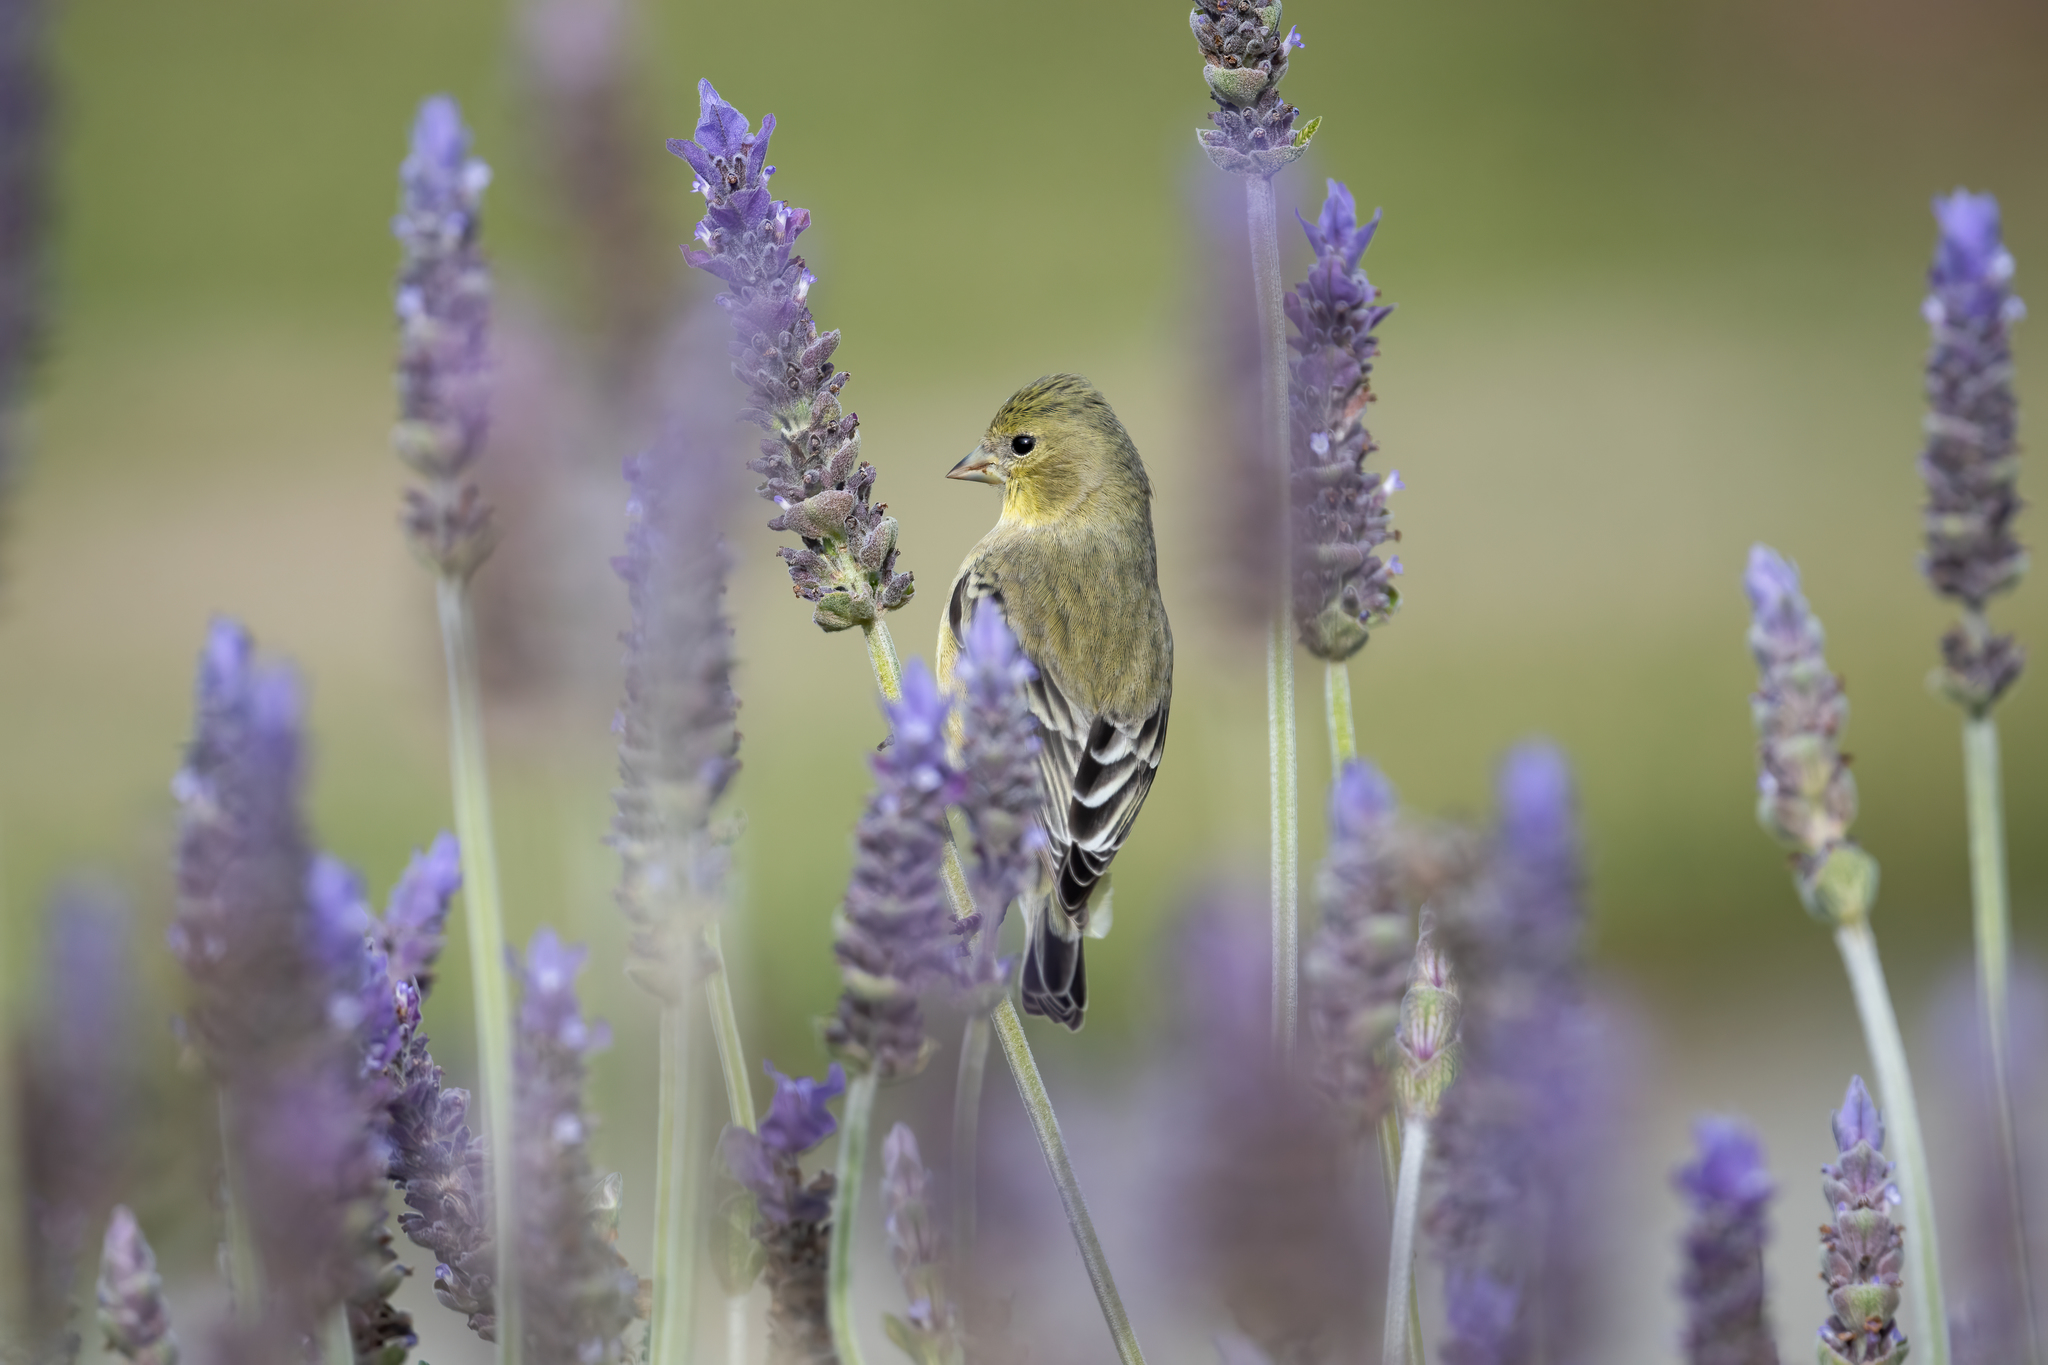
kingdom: Animalia
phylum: Chordata
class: Aves
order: Passeriformes
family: Fringillidae
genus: Spinus
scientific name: Spinus psaltria
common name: Lesser goldfinch
